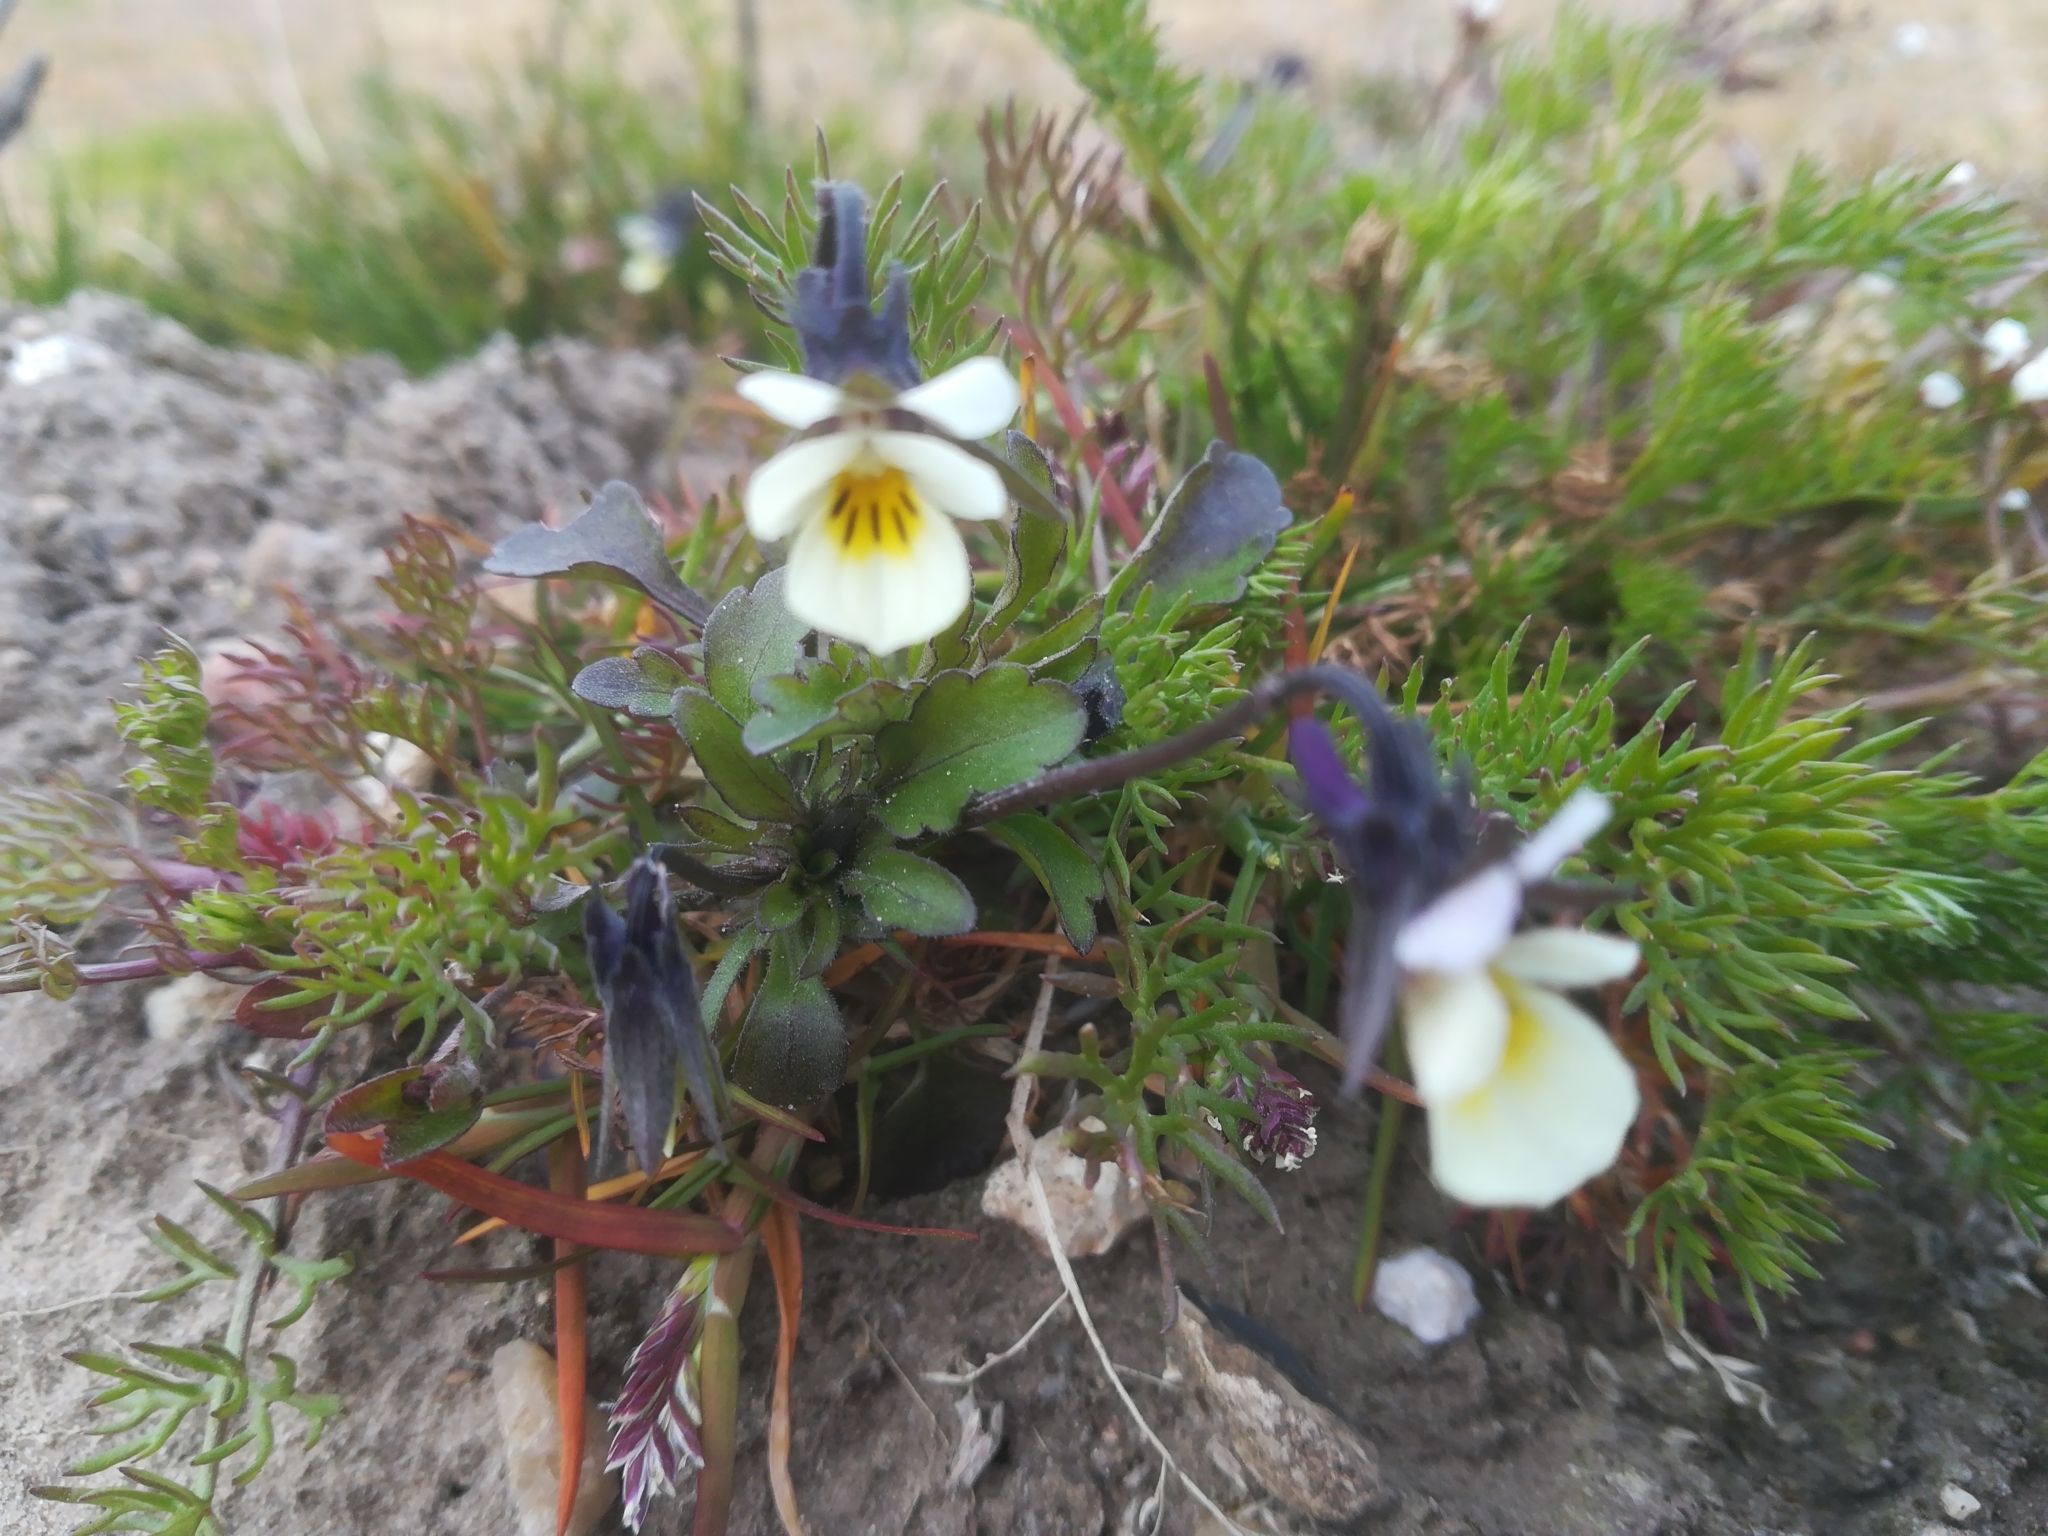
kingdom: Plantae
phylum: Tracheophyta
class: Magnoliopsida
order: Malpighiales
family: Violaceae
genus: Viola
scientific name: Viola arvensis
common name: Field pansy
